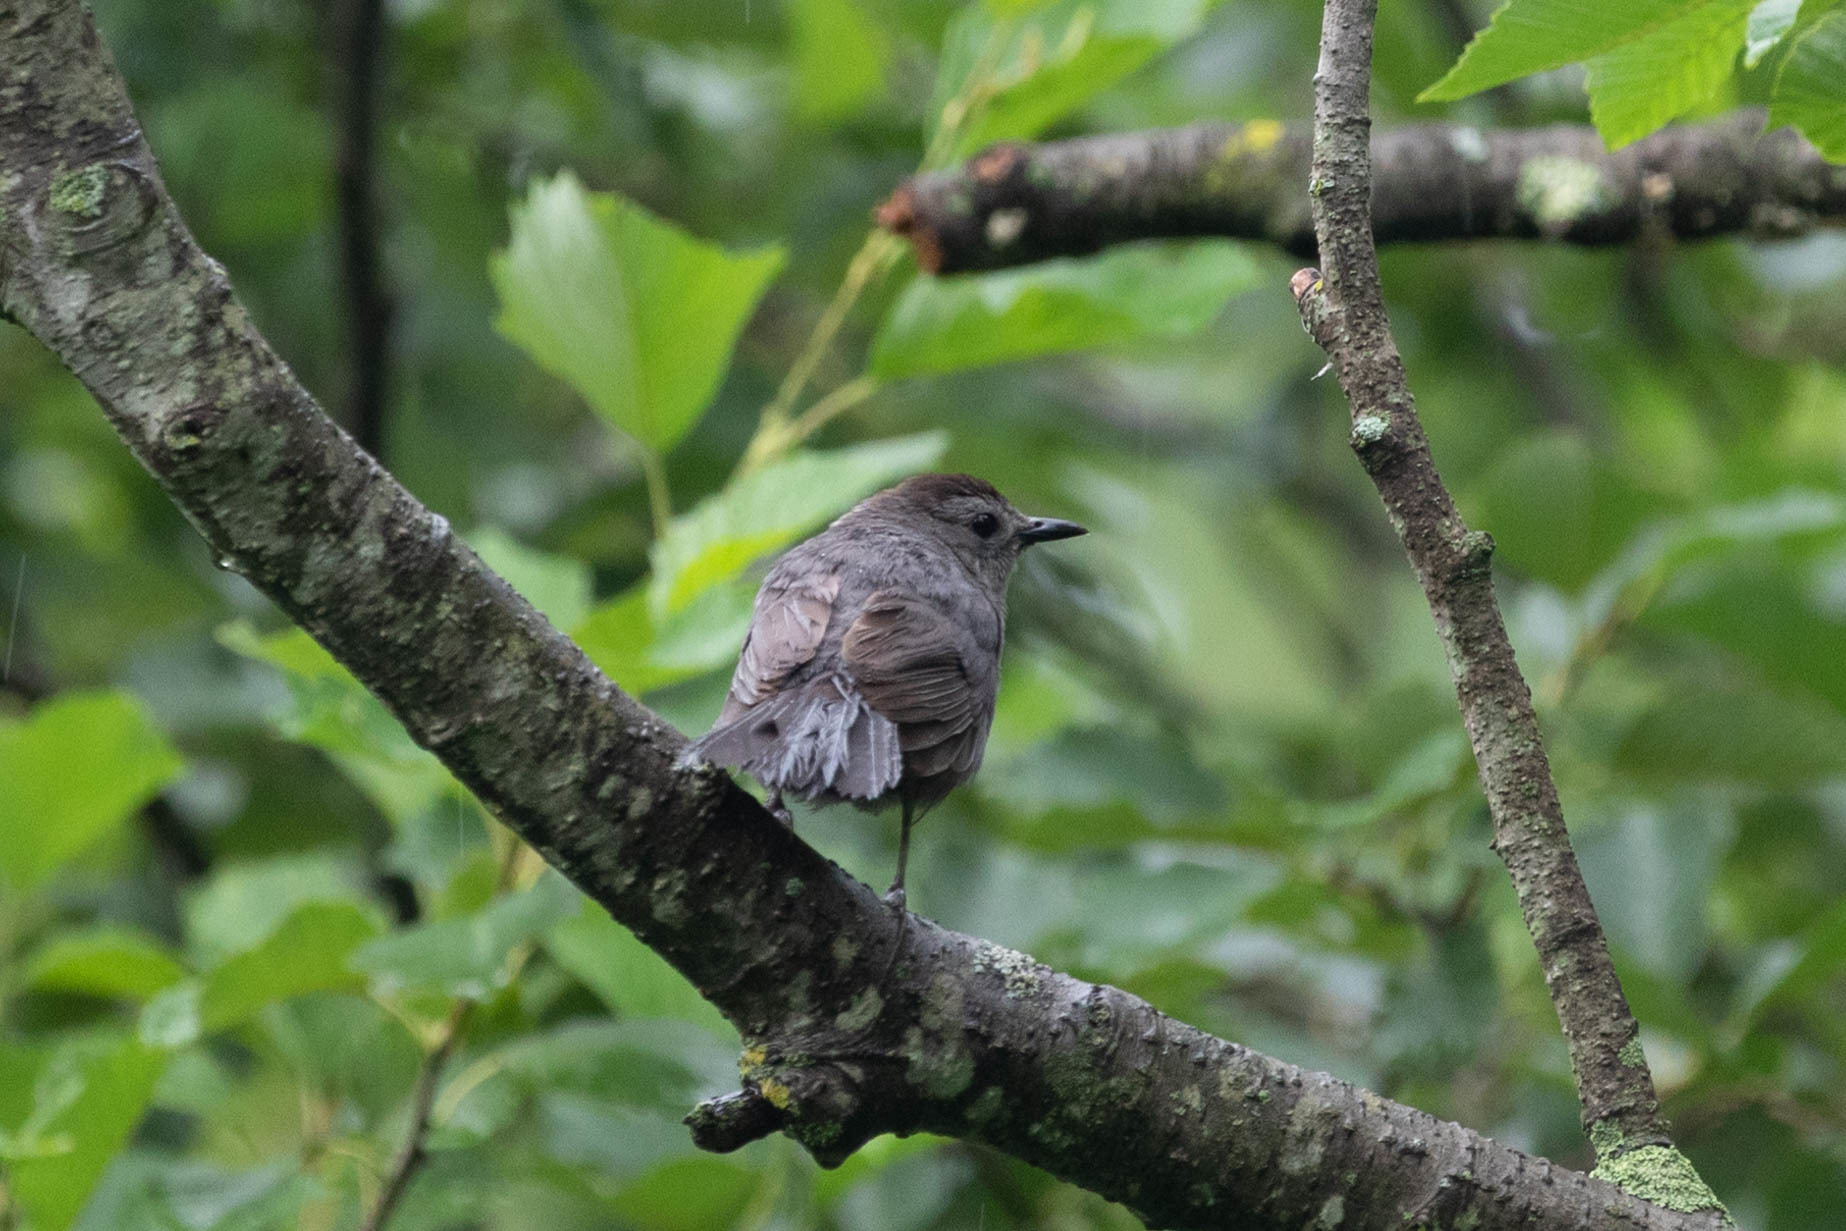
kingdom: Animalia
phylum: Chordata
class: Aves
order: Passeriformes
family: Mimidae
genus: Dumetella
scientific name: Dumetella carolinensis
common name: Gray catbird
